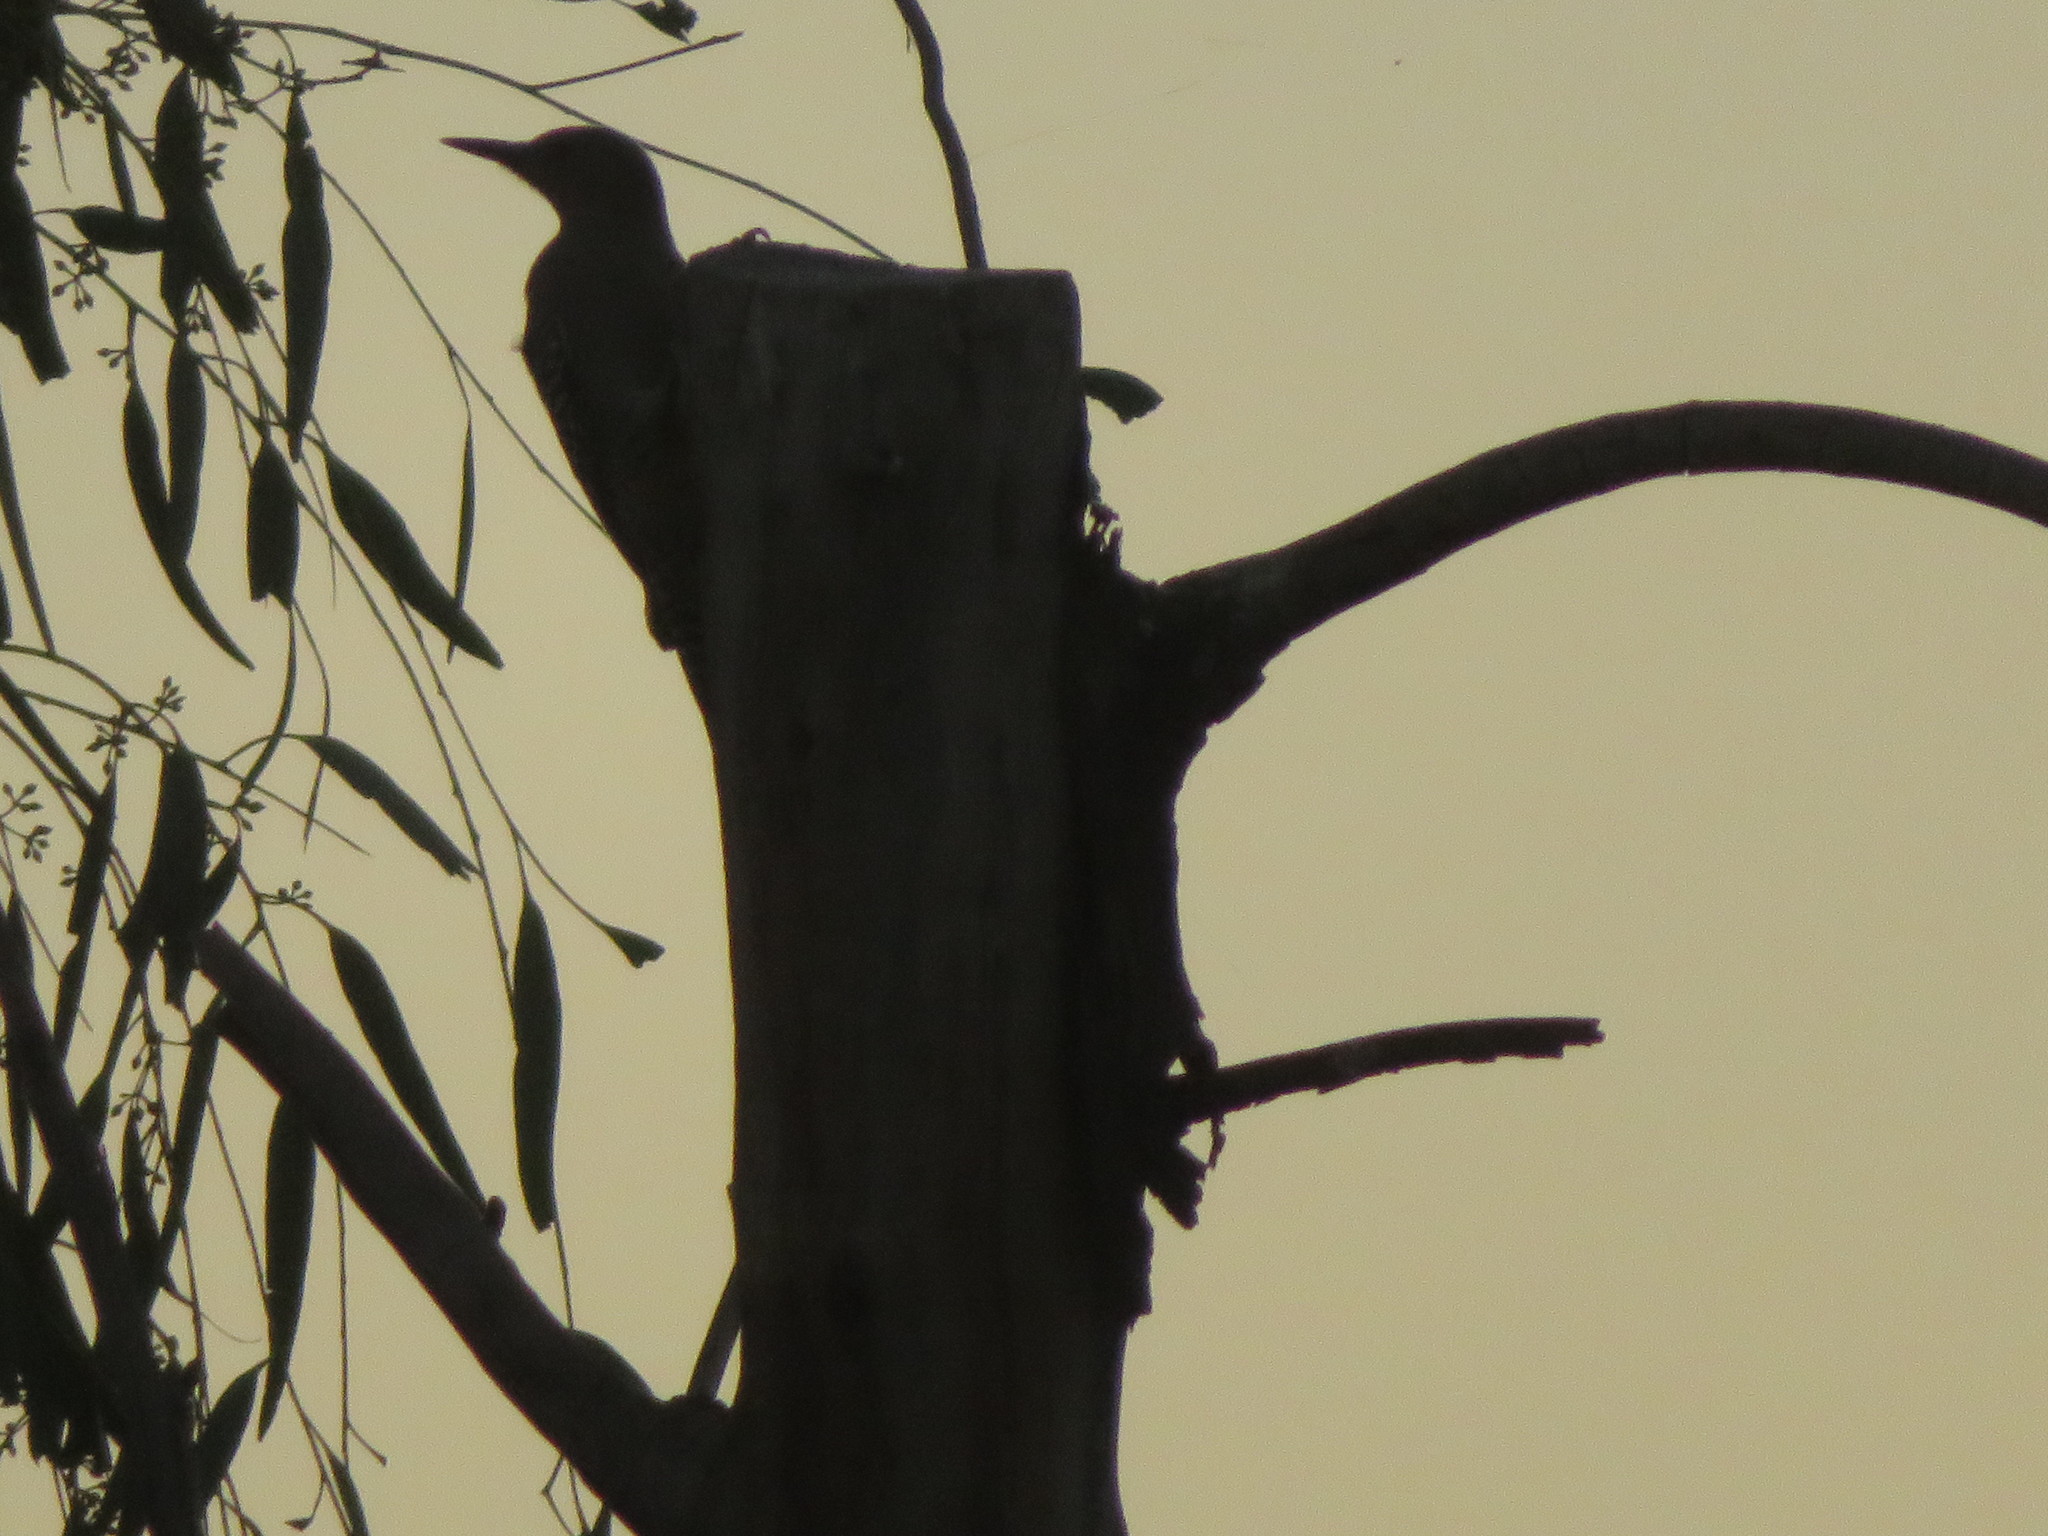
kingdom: Animalia
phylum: Chordata
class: Aves
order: Piciformes
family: Picidae
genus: Melanerpes
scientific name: Melanerpes uropygialis
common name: Gila woodpecker
